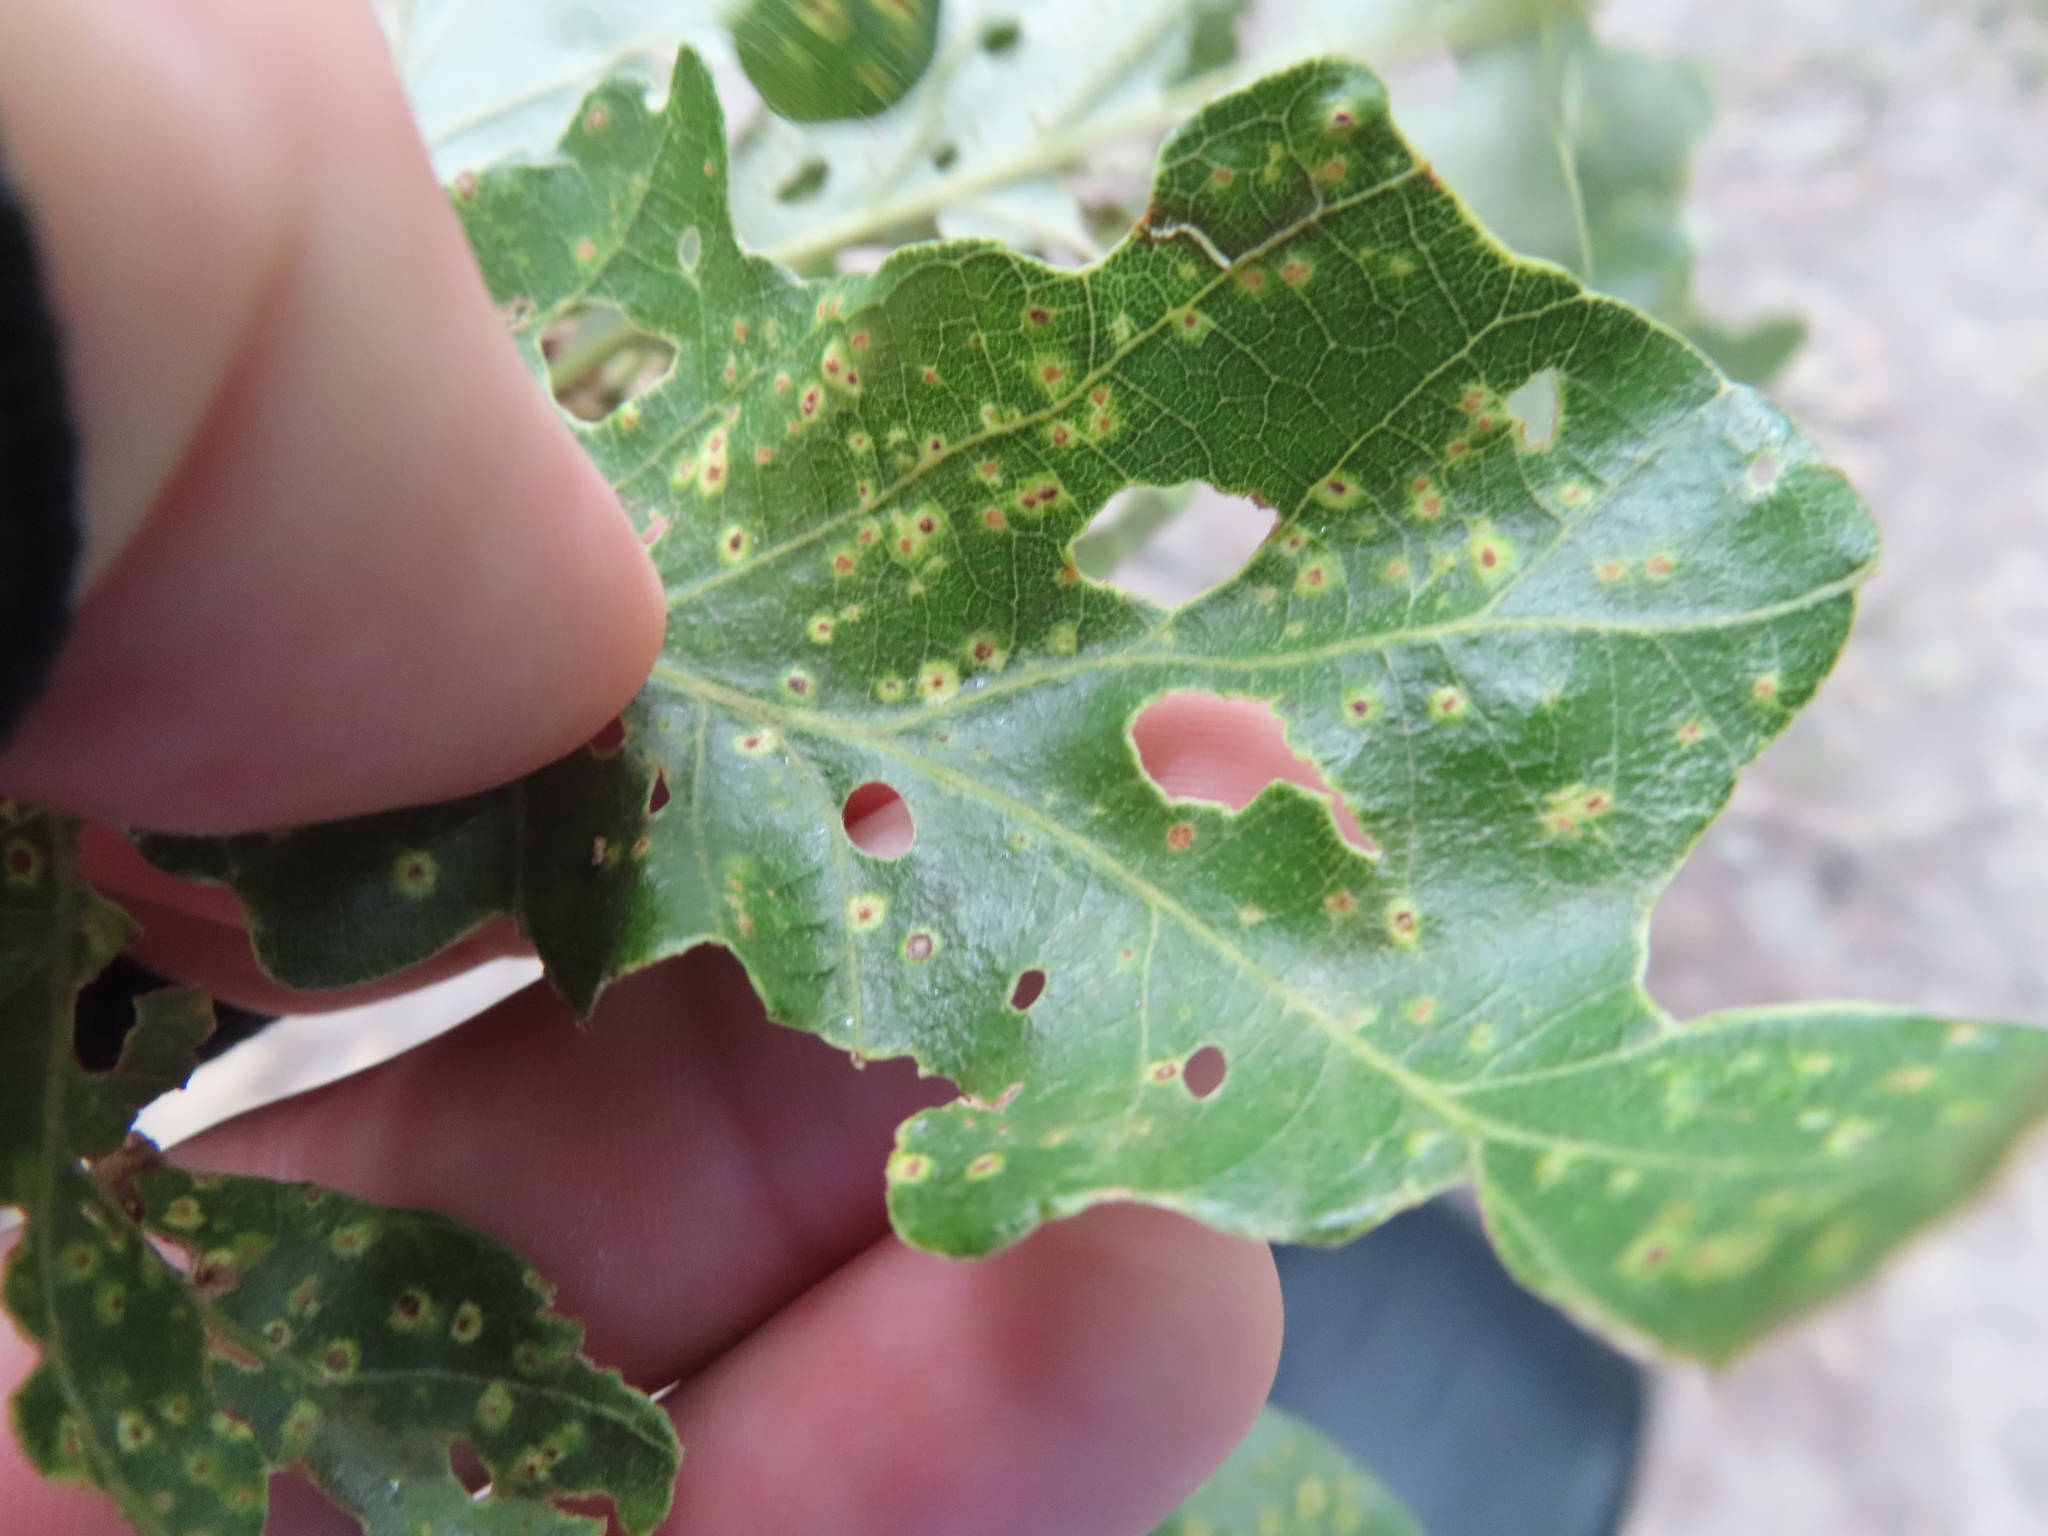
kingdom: Animalia
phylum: Arthropoda
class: Insecta
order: Hymenoptera
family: Cynipidae
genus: Neuroterus
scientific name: Neuroterus
